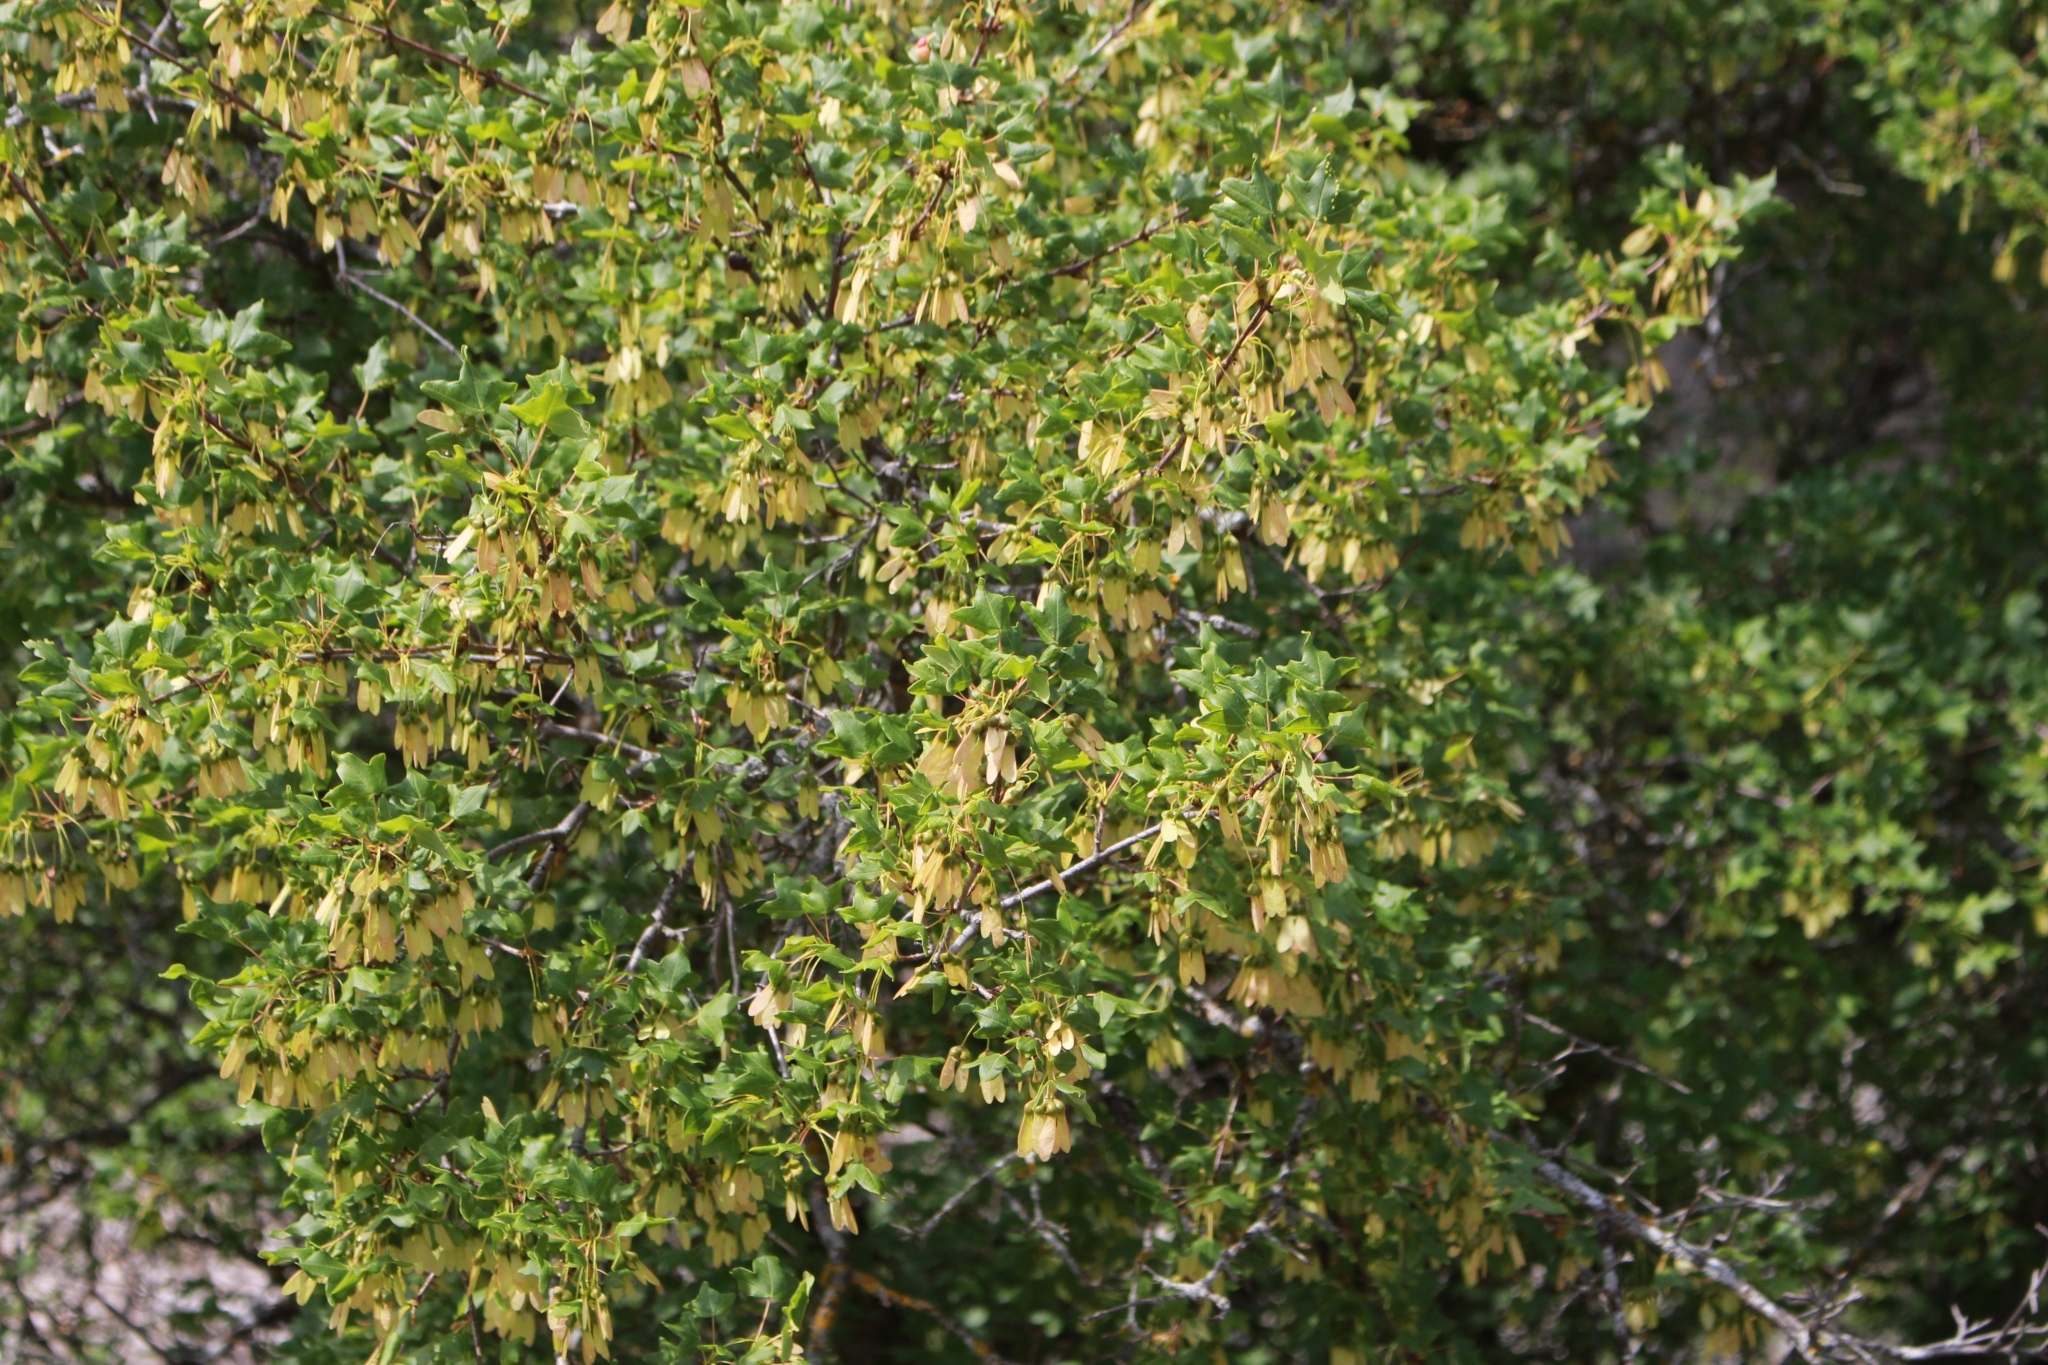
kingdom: Plantae
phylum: Tracheophyta
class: Magnoliopsida
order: Sapindales
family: Sapindaceae
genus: Acer
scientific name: Acer monspessulanum
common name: Montpellier maple
